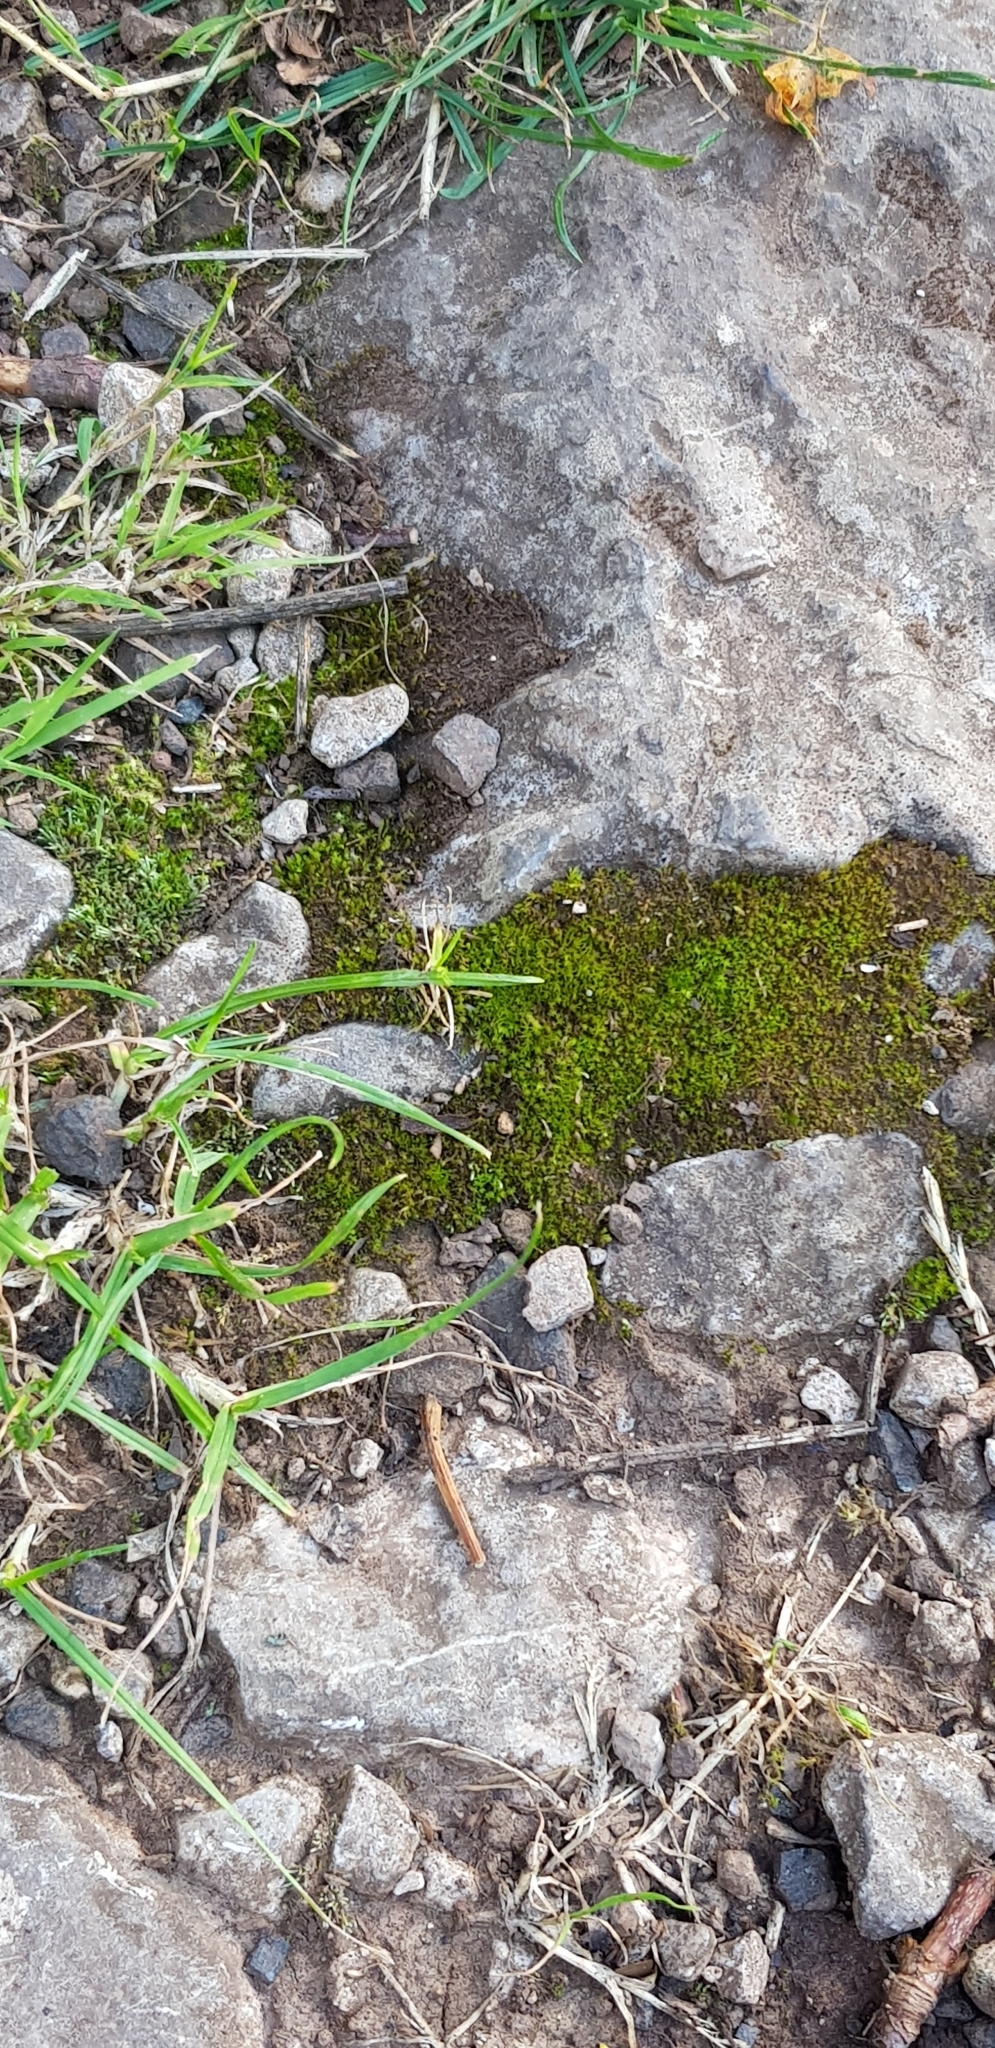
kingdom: Plantae
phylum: Bryophyta
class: Bryopsida
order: Bryales
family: Bryaceae
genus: Bryum
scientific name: Bryum argenteum
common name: Silver-moss
